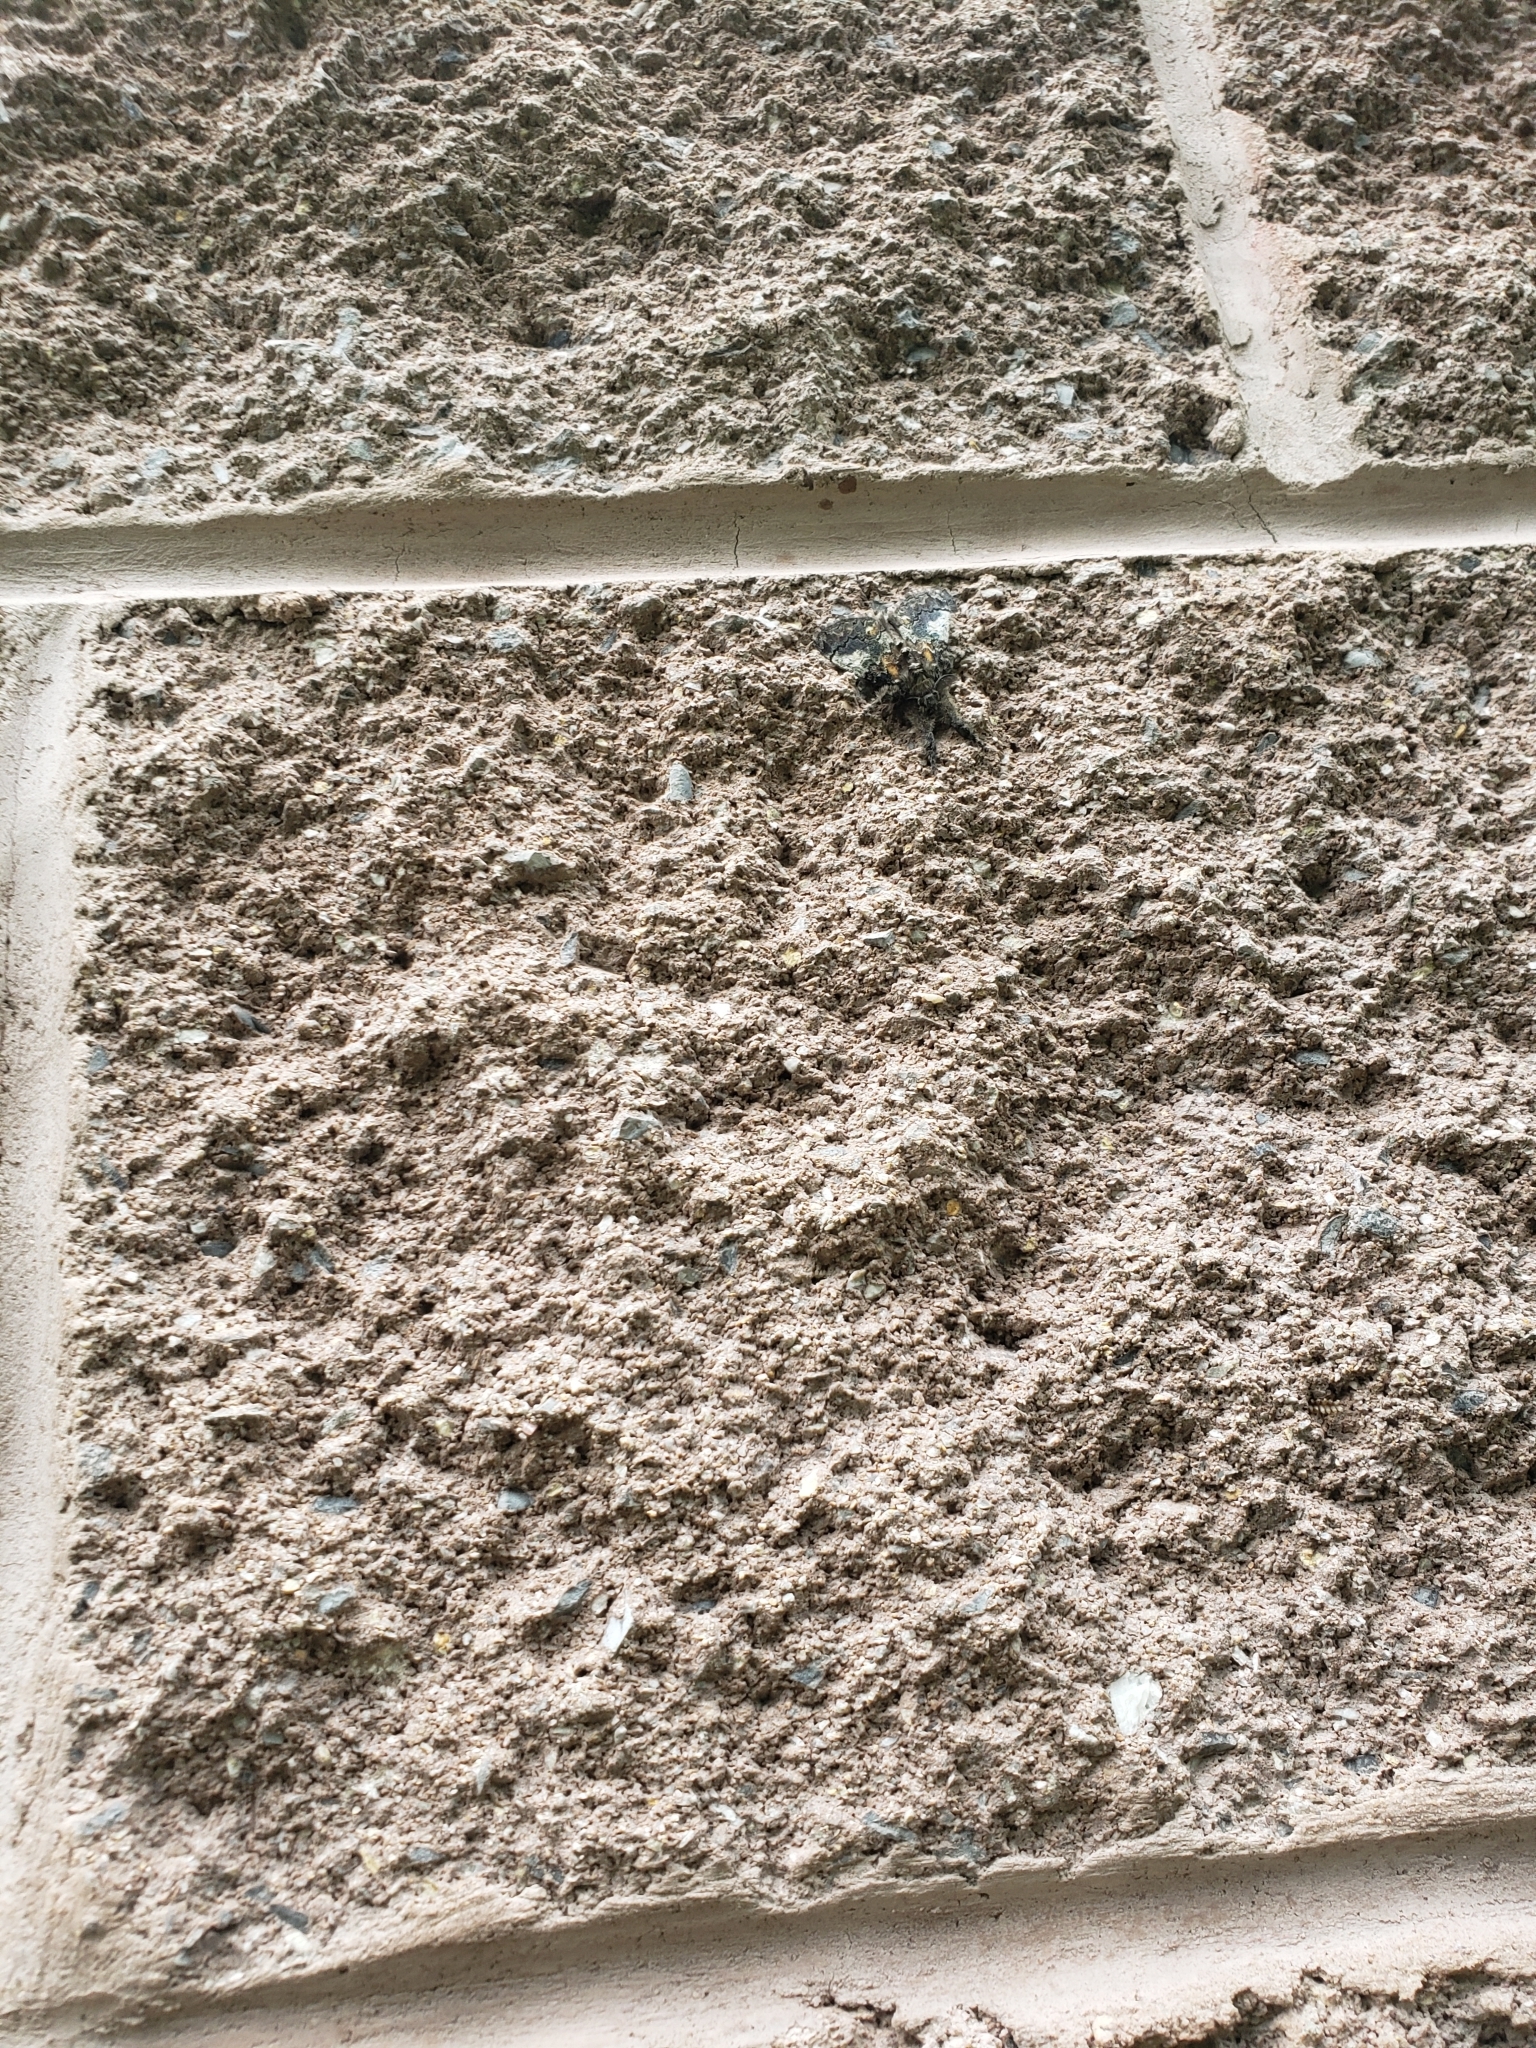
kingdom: Animalia
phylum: Arthropoda
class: Insecta
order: Lepidoptera
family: Erebidae
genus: Dasychira
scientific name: Dasychira basiflava
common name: Yellow-based tussock moth
